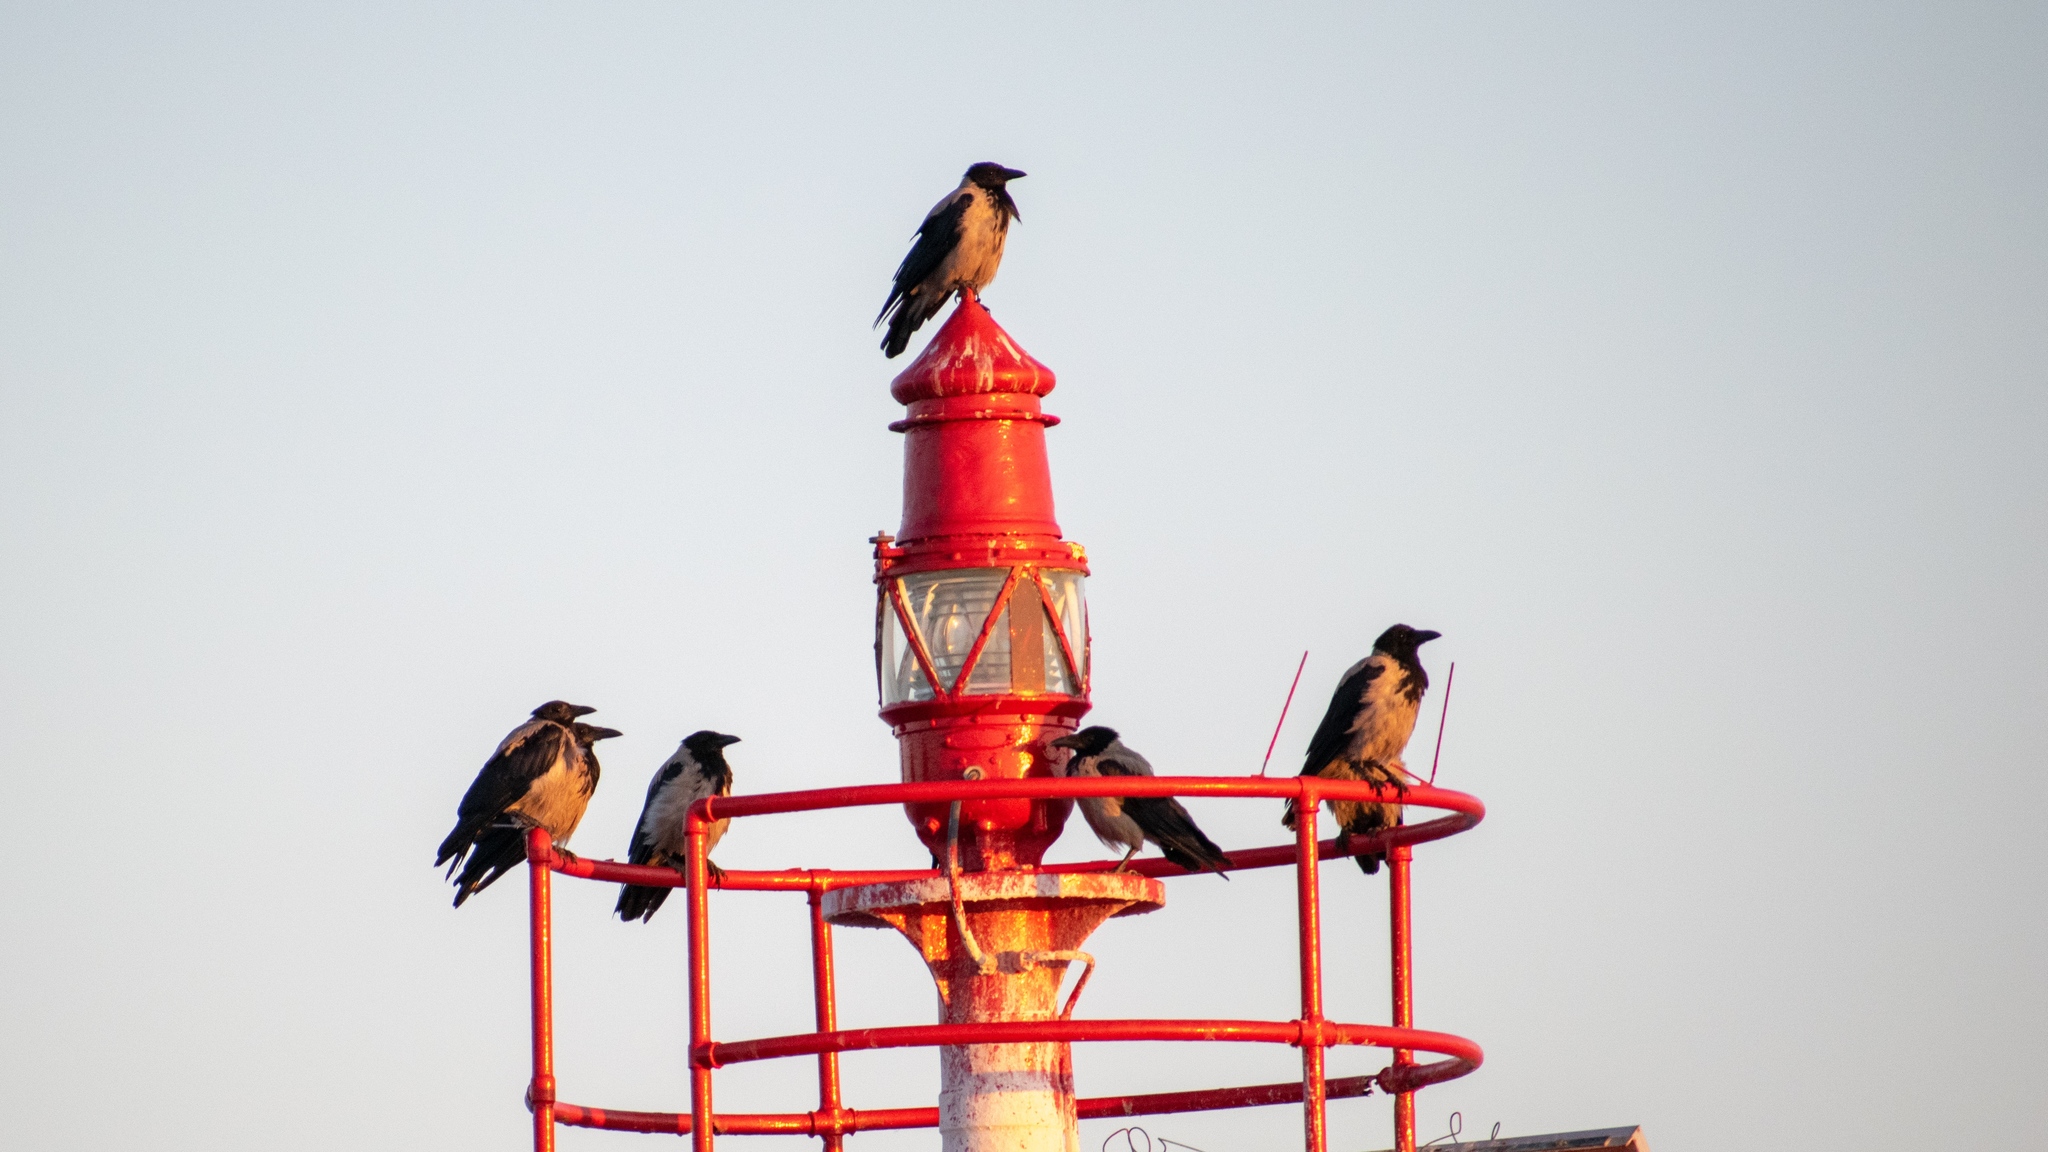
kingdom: Animalia
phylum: Chordata
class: Aves
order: Passeriformes
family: Corvidae
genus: Corvus
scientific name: Corvus cornix
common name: Hooded crow
